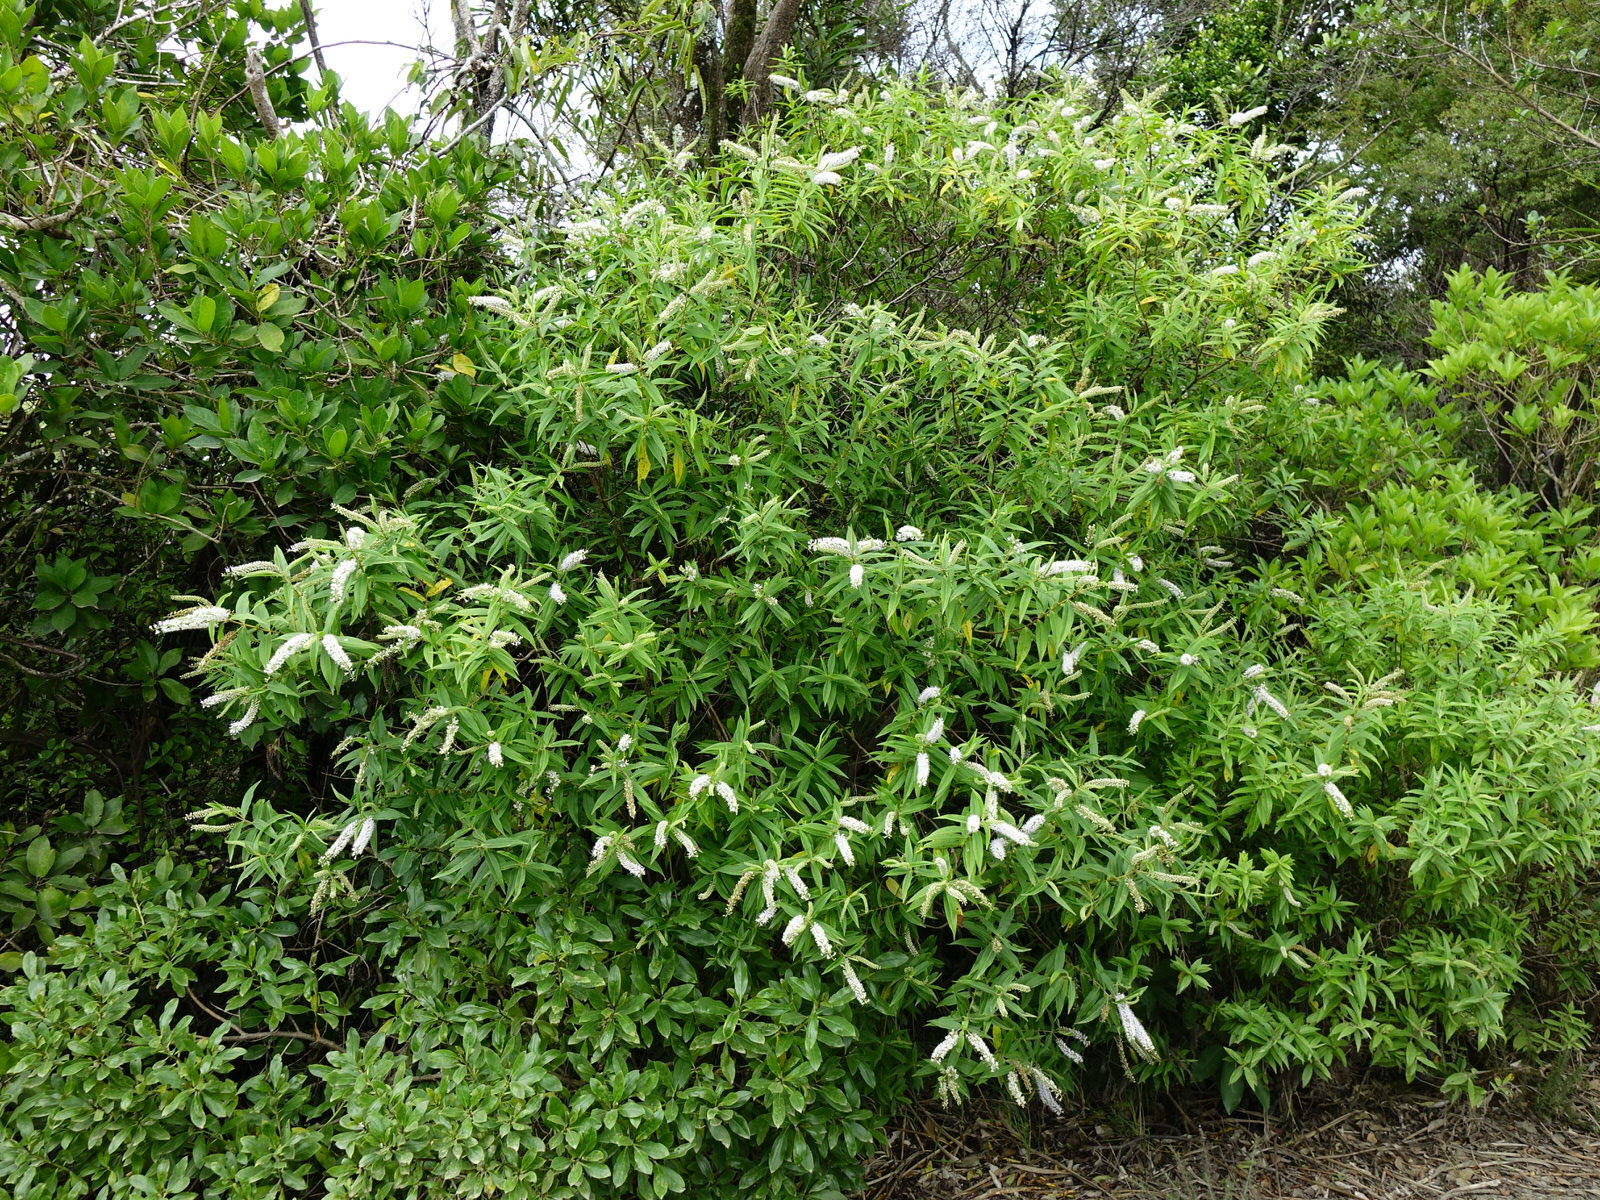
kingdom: Plantae
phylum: Tracheophyta
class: Magnoliopsida
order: Lamiales
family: Plantaginaceae
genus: Veronica
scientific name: Veronica stricta
